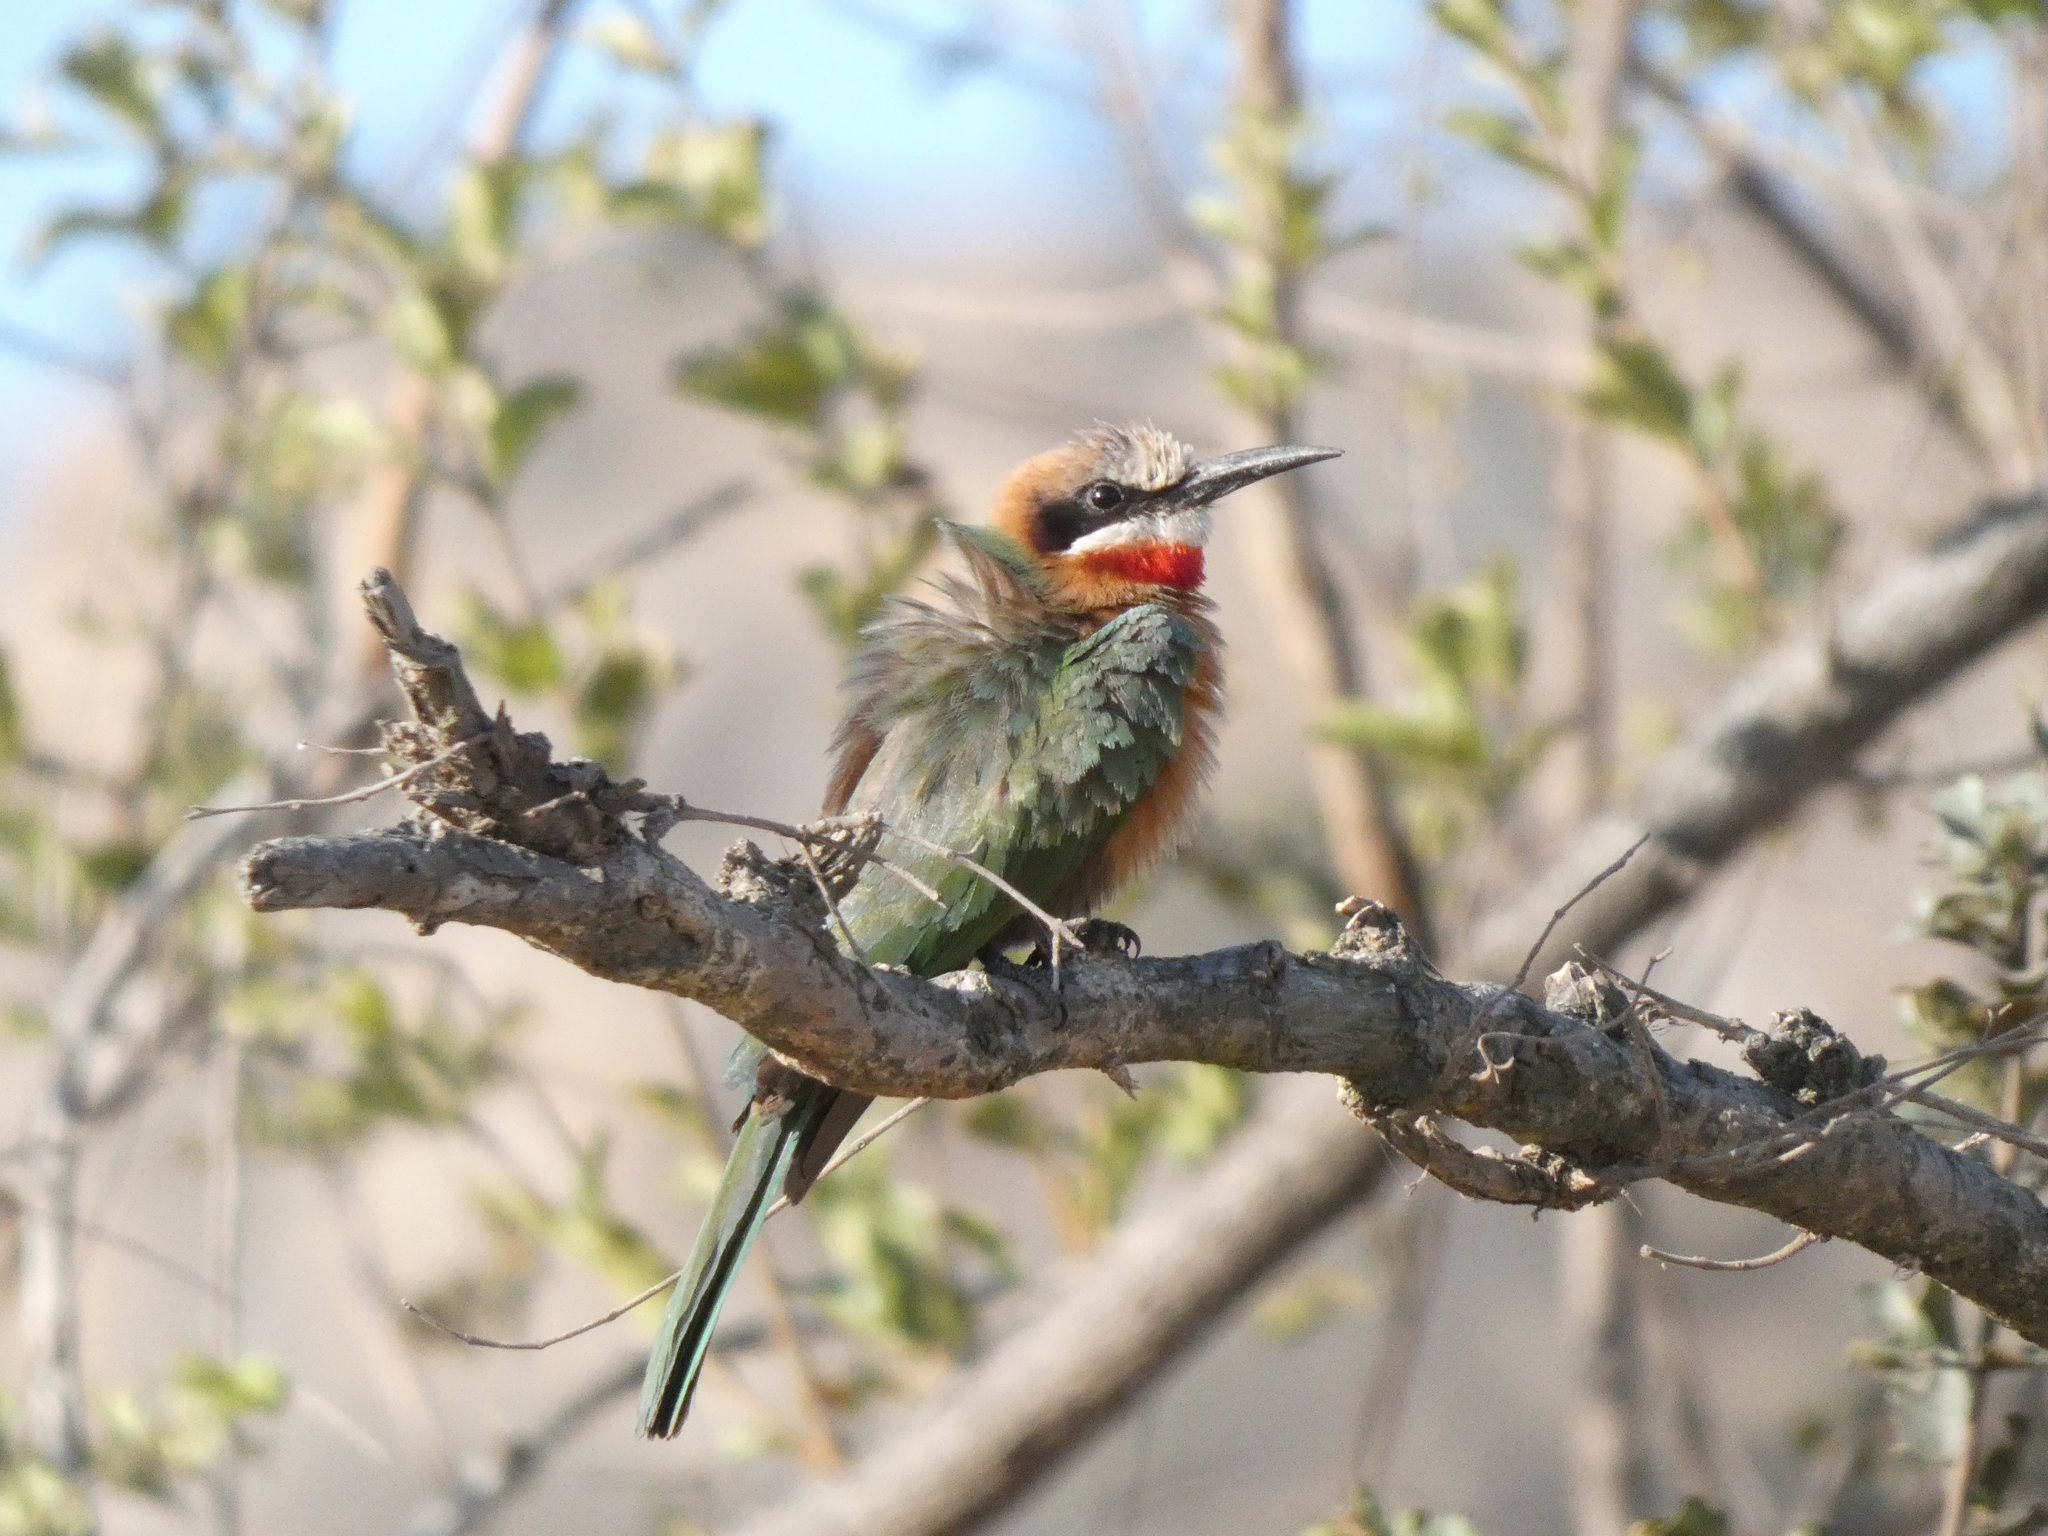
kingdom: Animalia
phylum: Chordata
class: Aves
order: Coraciiformes
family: Meropidae
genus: Merops
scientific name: Merops bullockoides
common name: White-fronted bee-eater
